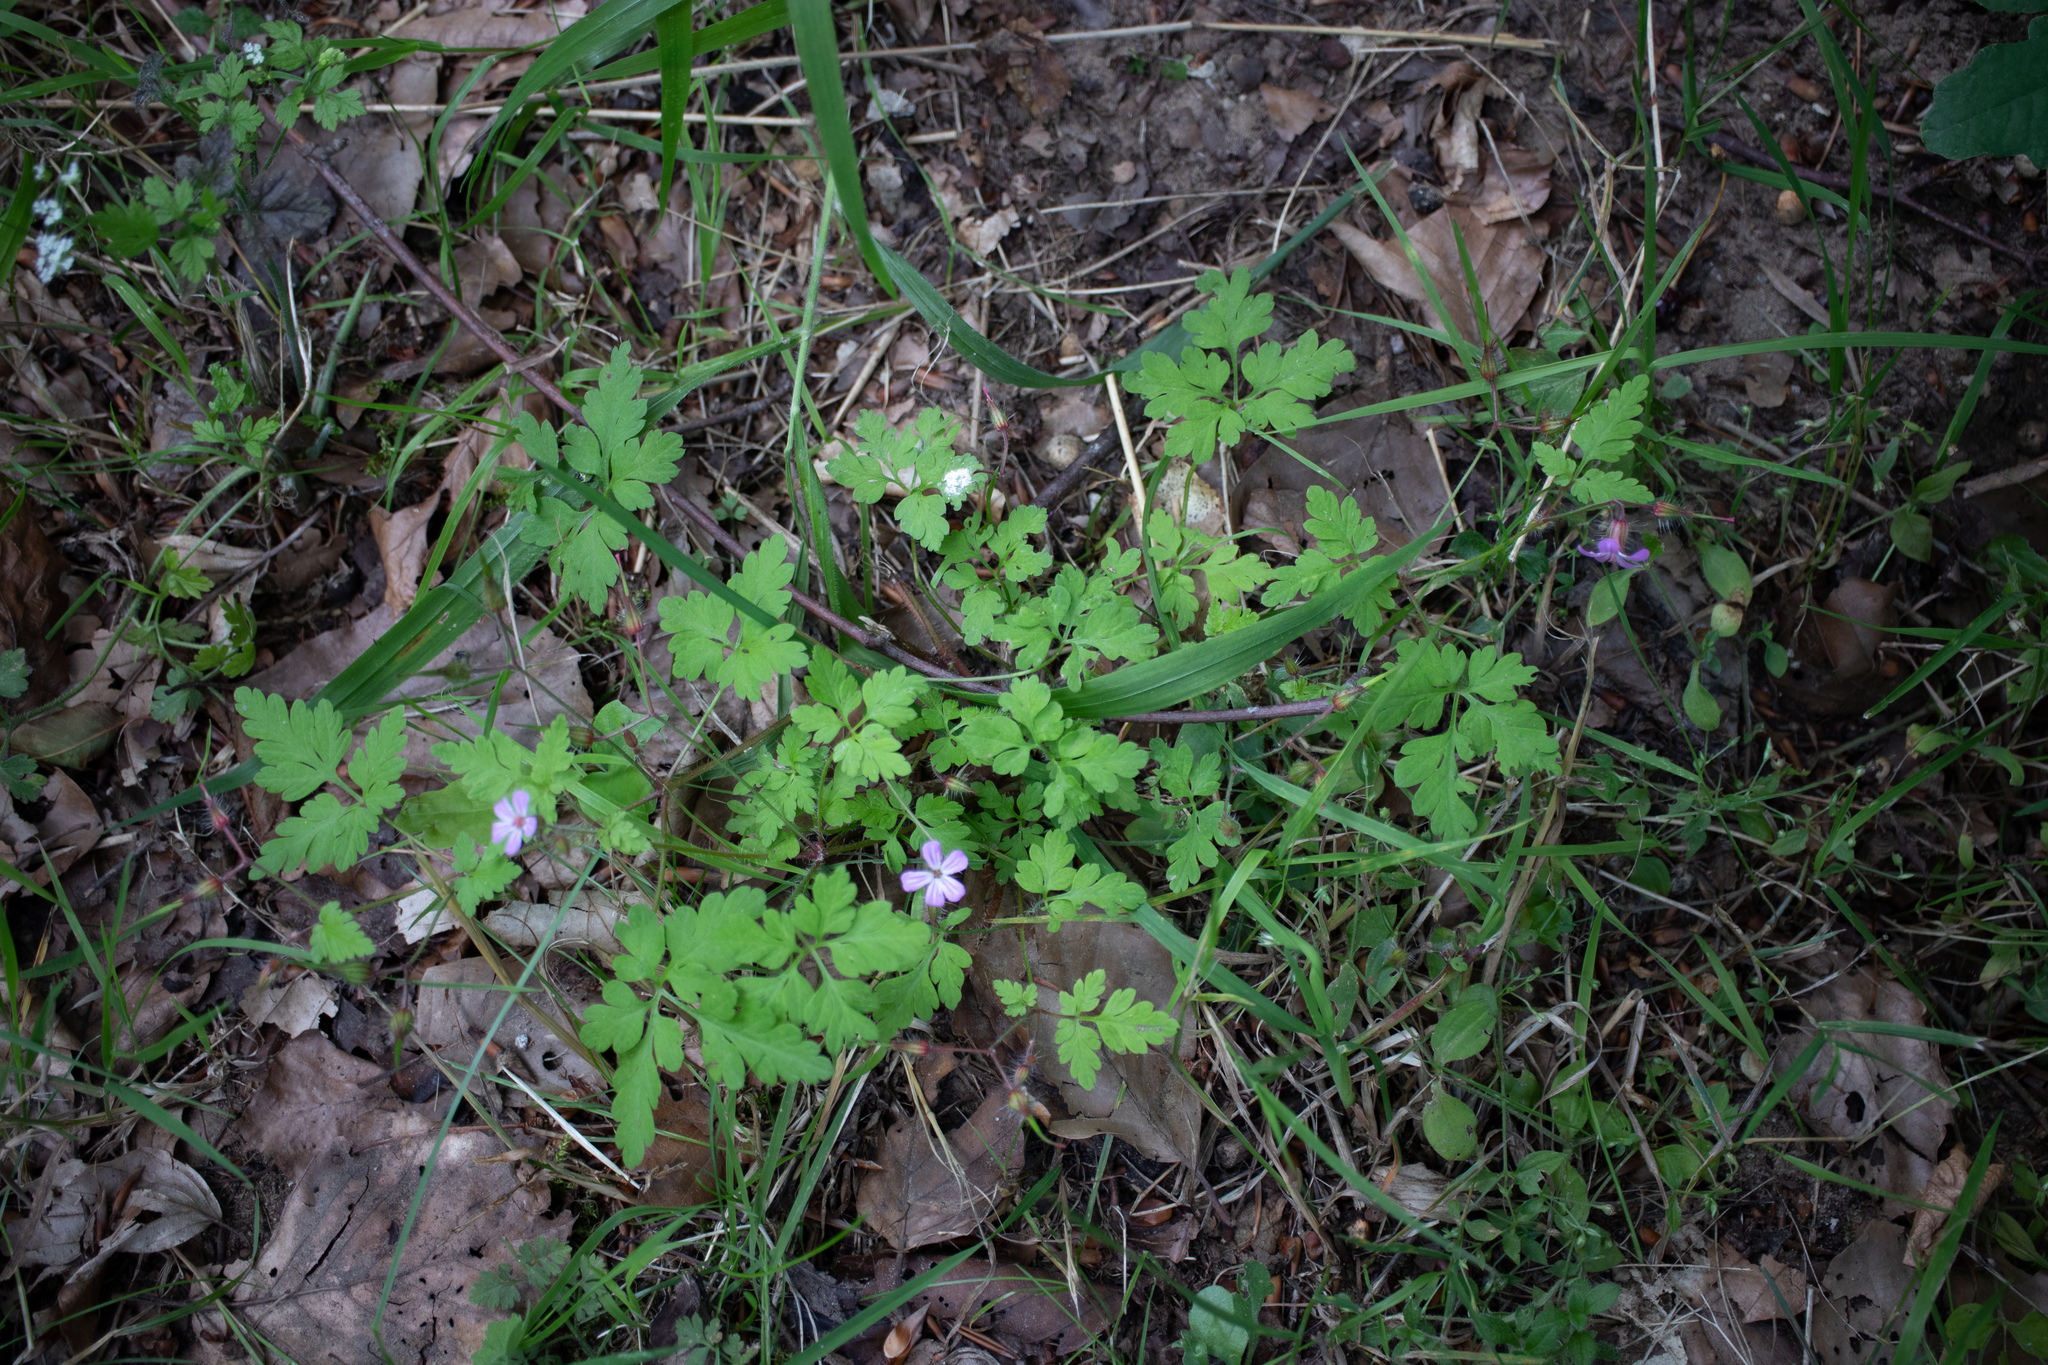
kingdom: Plantae
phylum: Tracheophyta
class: Magnoliopsida
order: Geraniales
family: Geraniaceae
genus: Geranium
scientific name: Geranium robertianum
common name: Herb-robert
